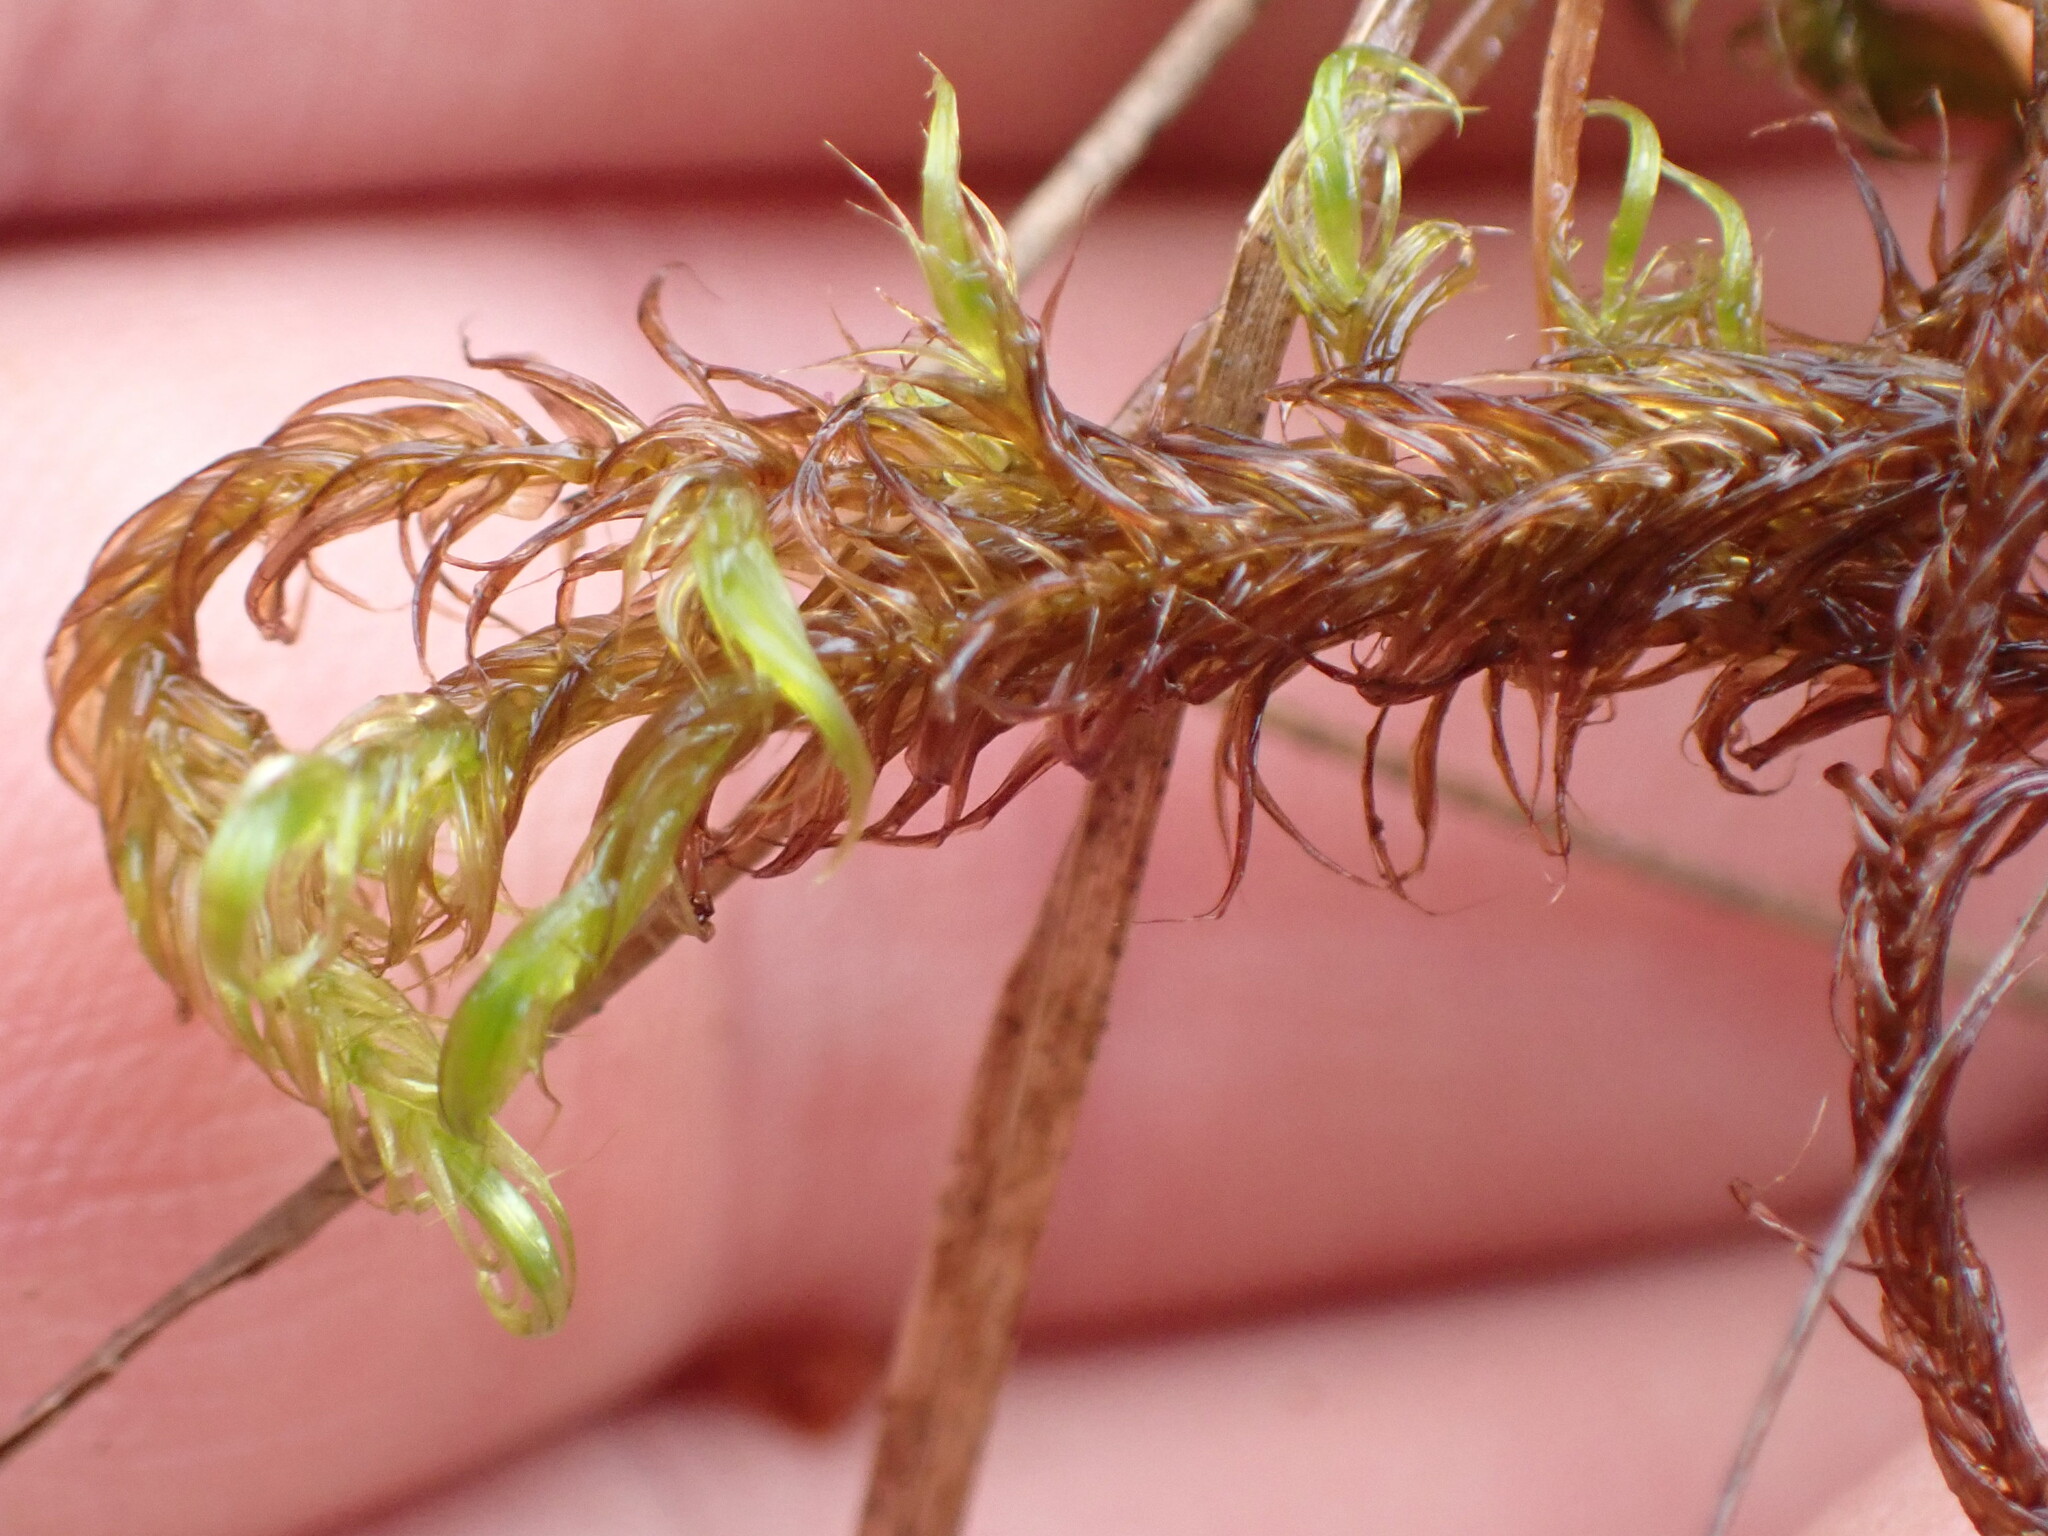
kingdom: Plantae
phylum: Bryophyta
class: Bryopsida
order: Hypnales
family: Calliergonaceae
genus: Sarmentypnum
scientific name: Sarmentypnum exannulatum
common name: Ringless spoon moss
